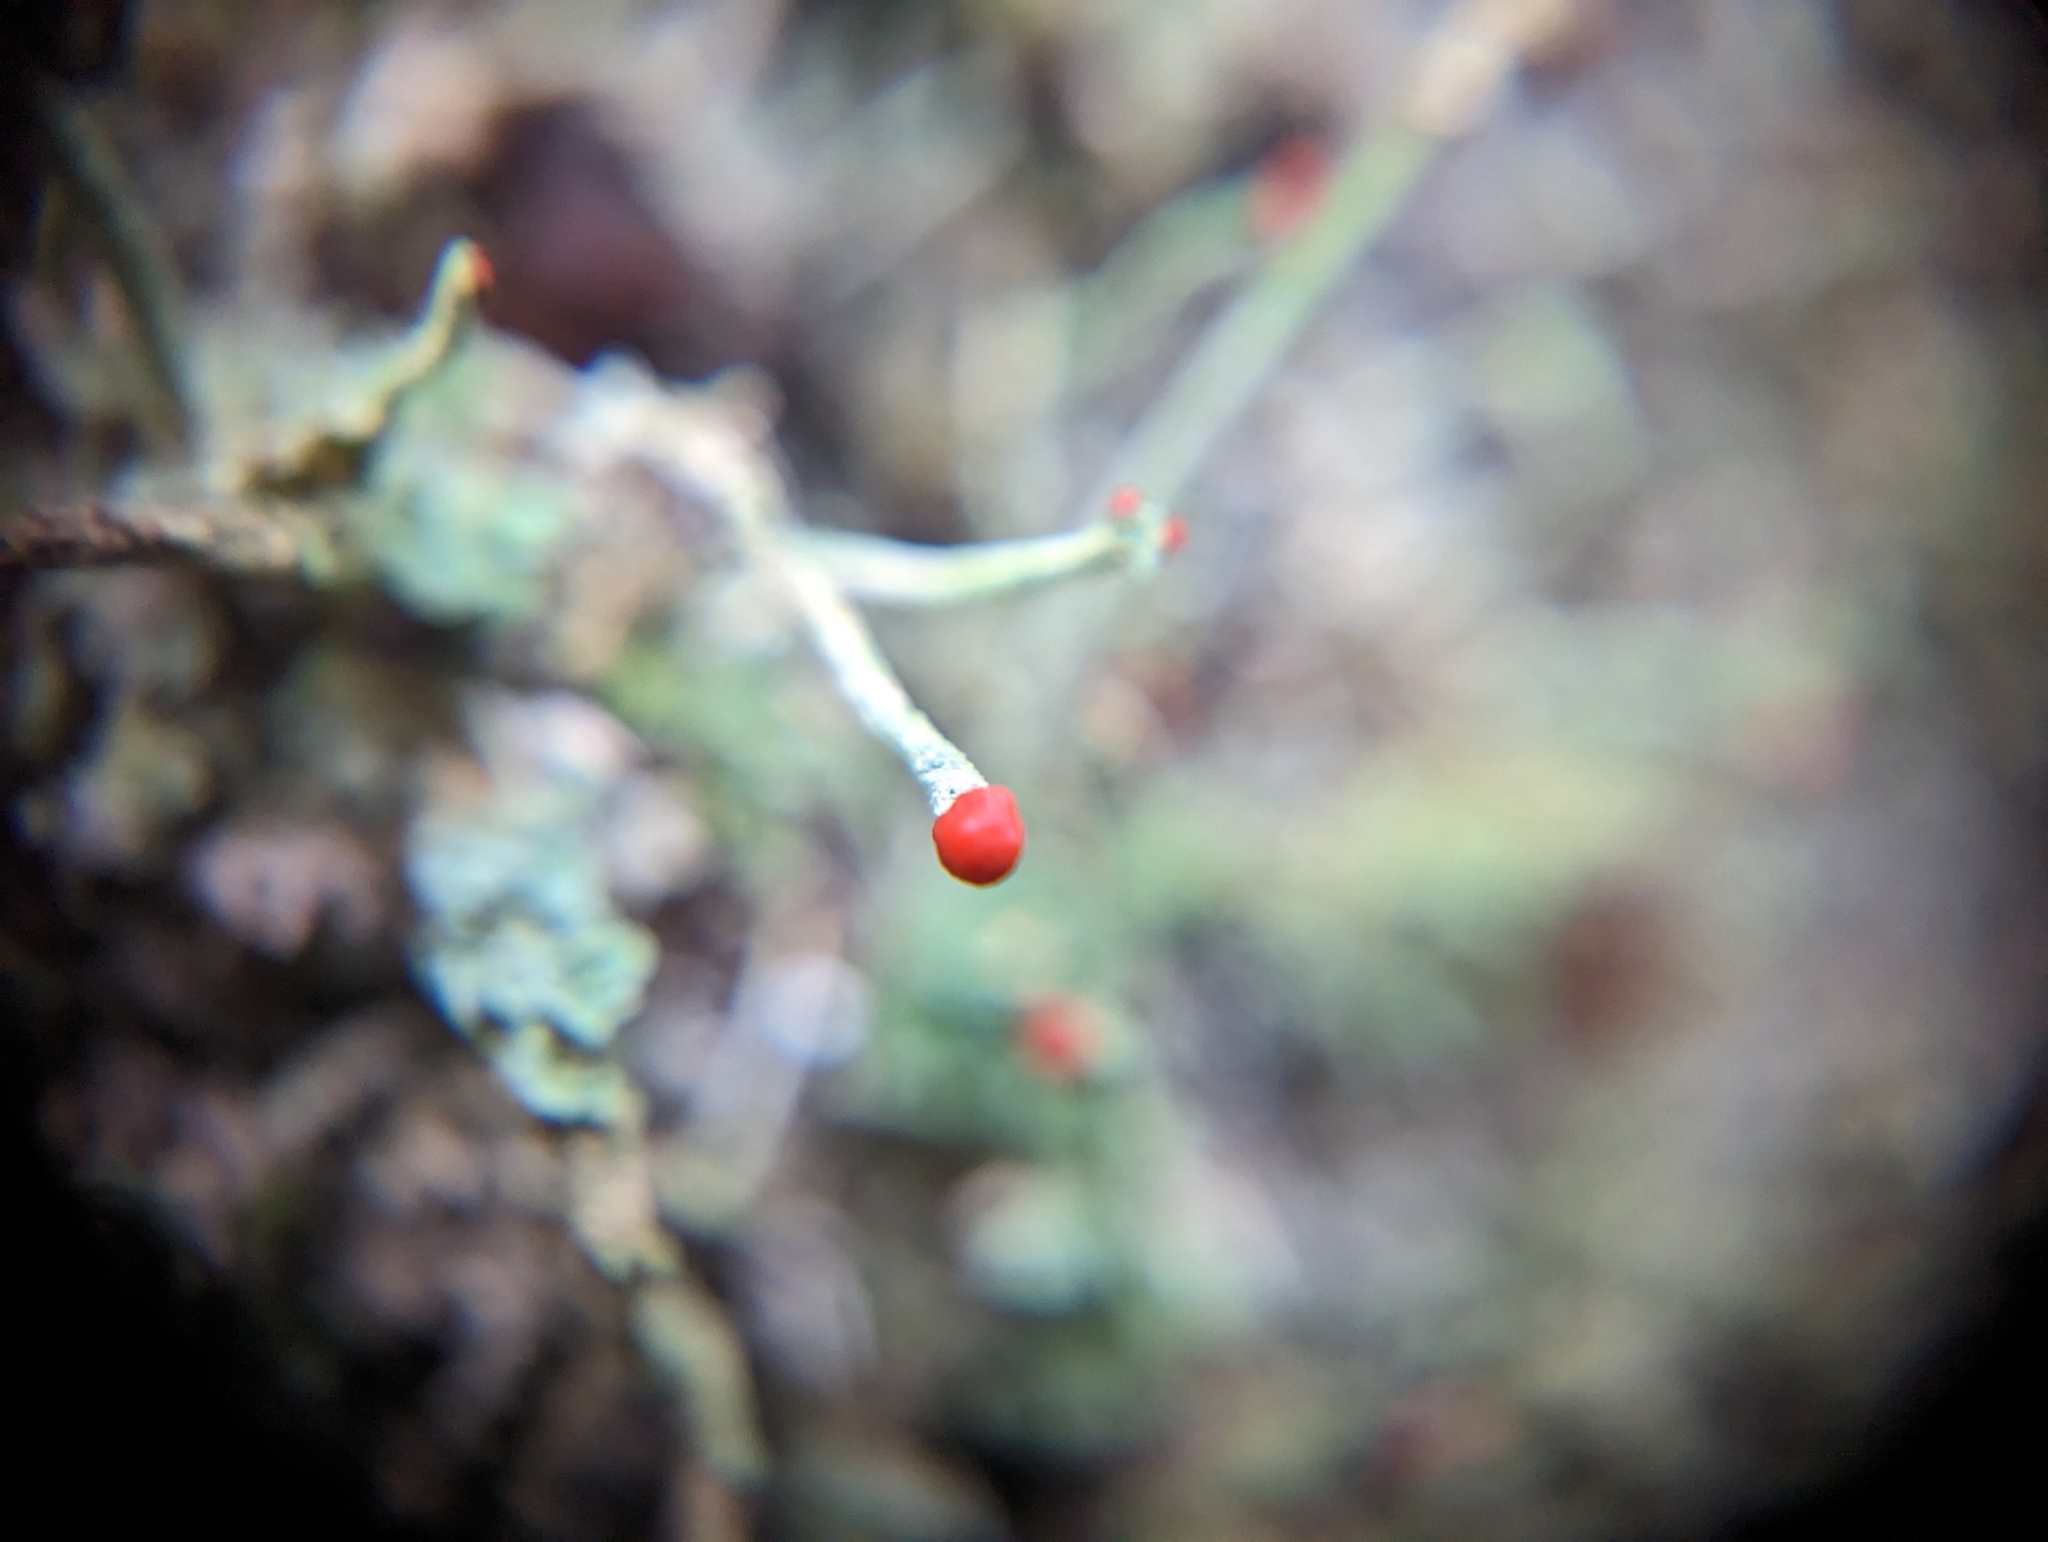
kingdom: Fungi
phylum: Ascomycota
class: Lecanoromycetes
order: Lecanorales
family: Cladoniaceae
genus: Cladonia
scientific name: Cladonia bellidiflora
